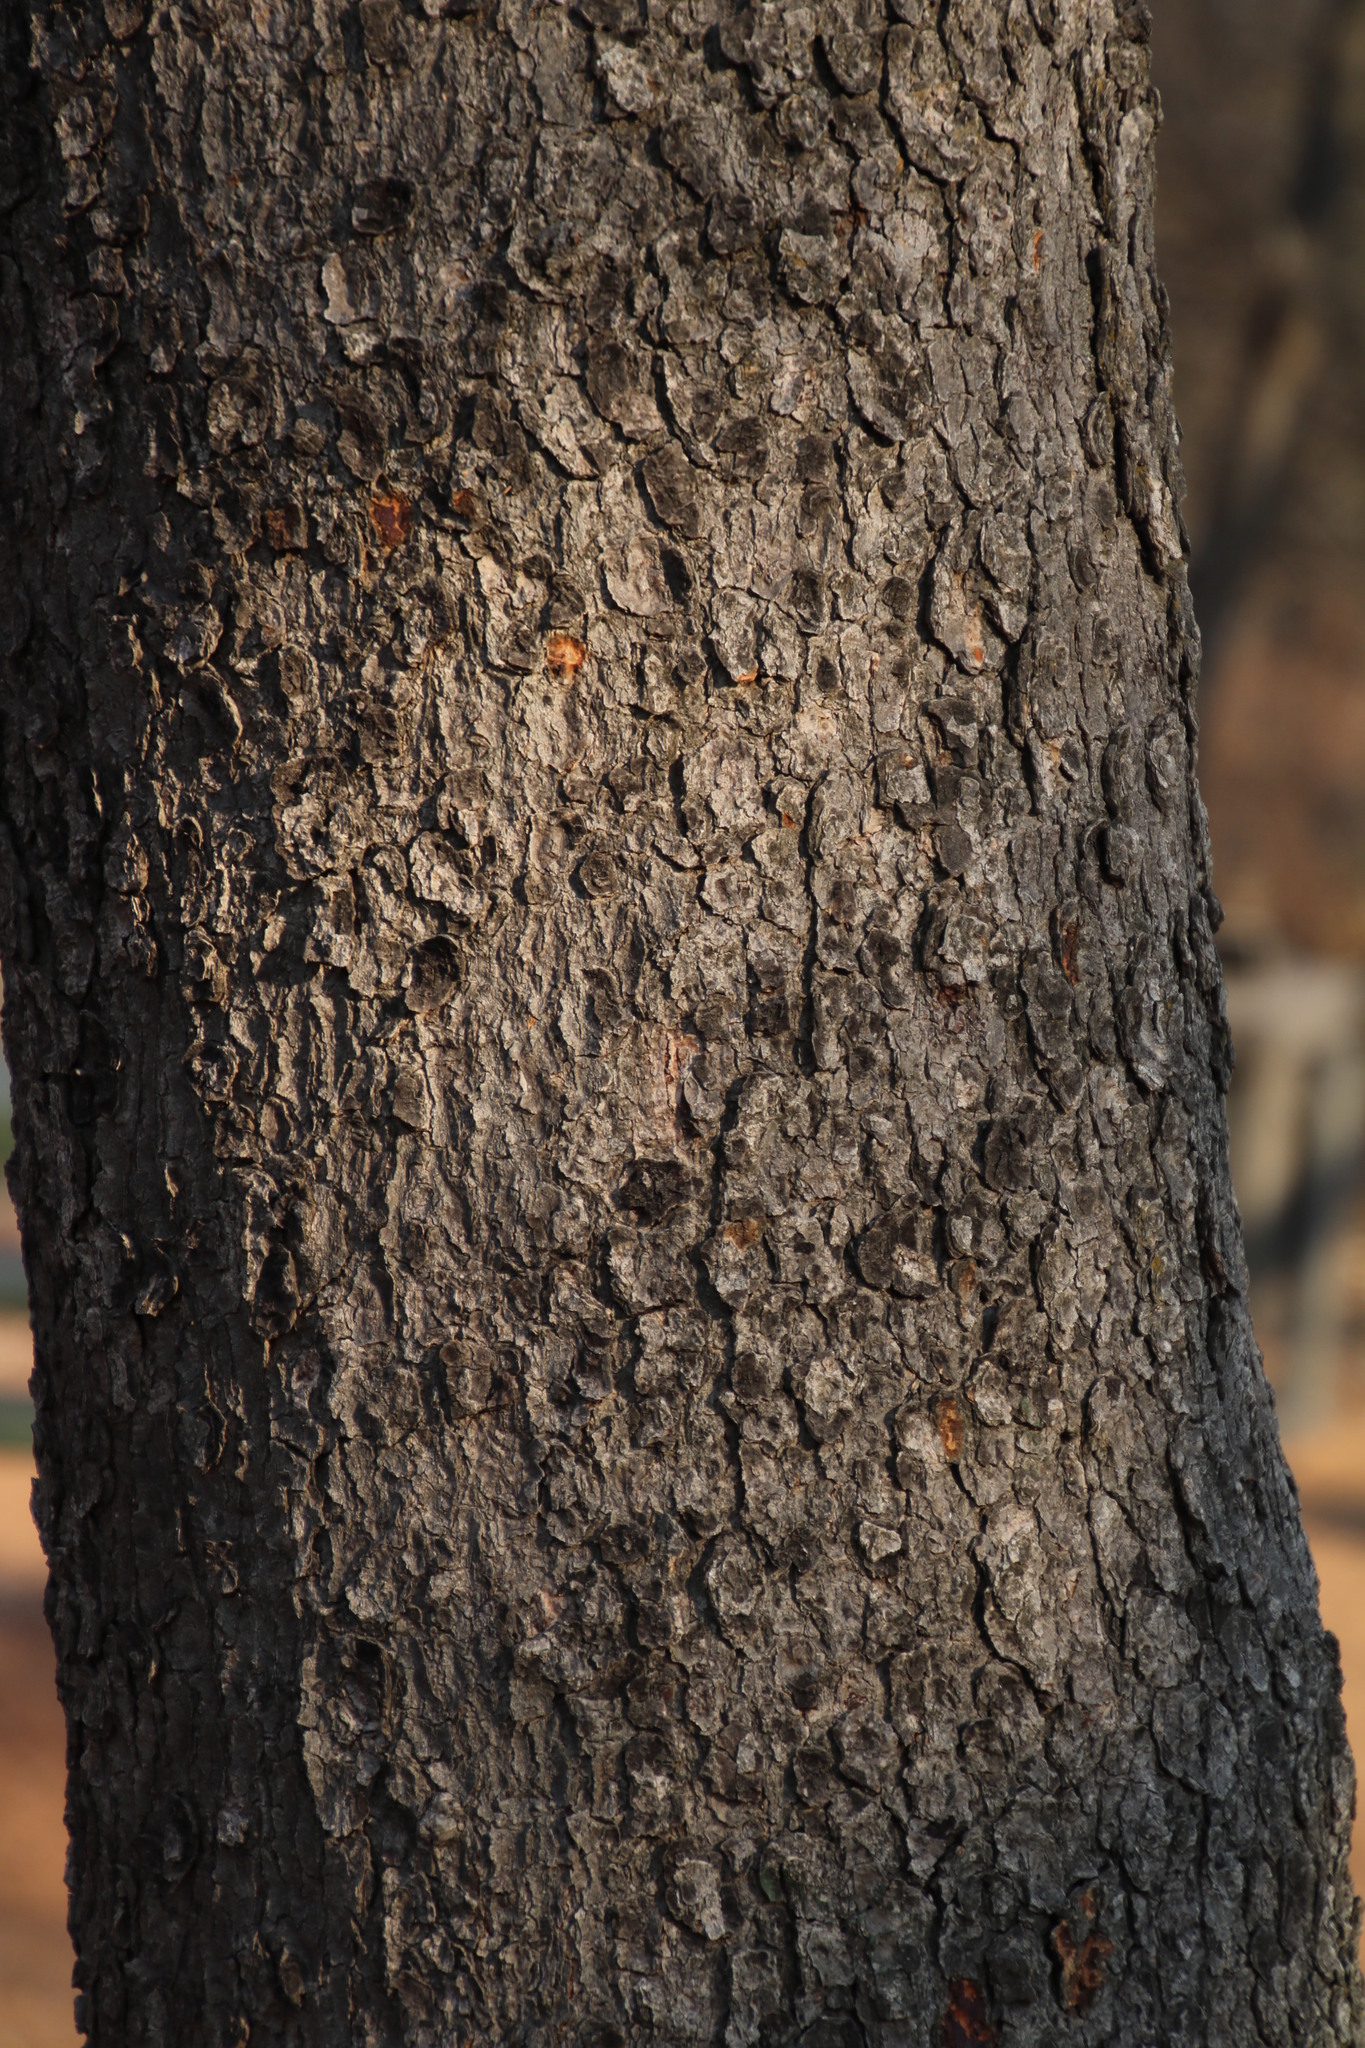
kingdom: Plantae
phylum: Tracheophyta
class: Magnoliopsida
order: Fabales
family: Fabaceae
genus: Burkea
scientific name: Burkea africana
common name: Mkalati tree
